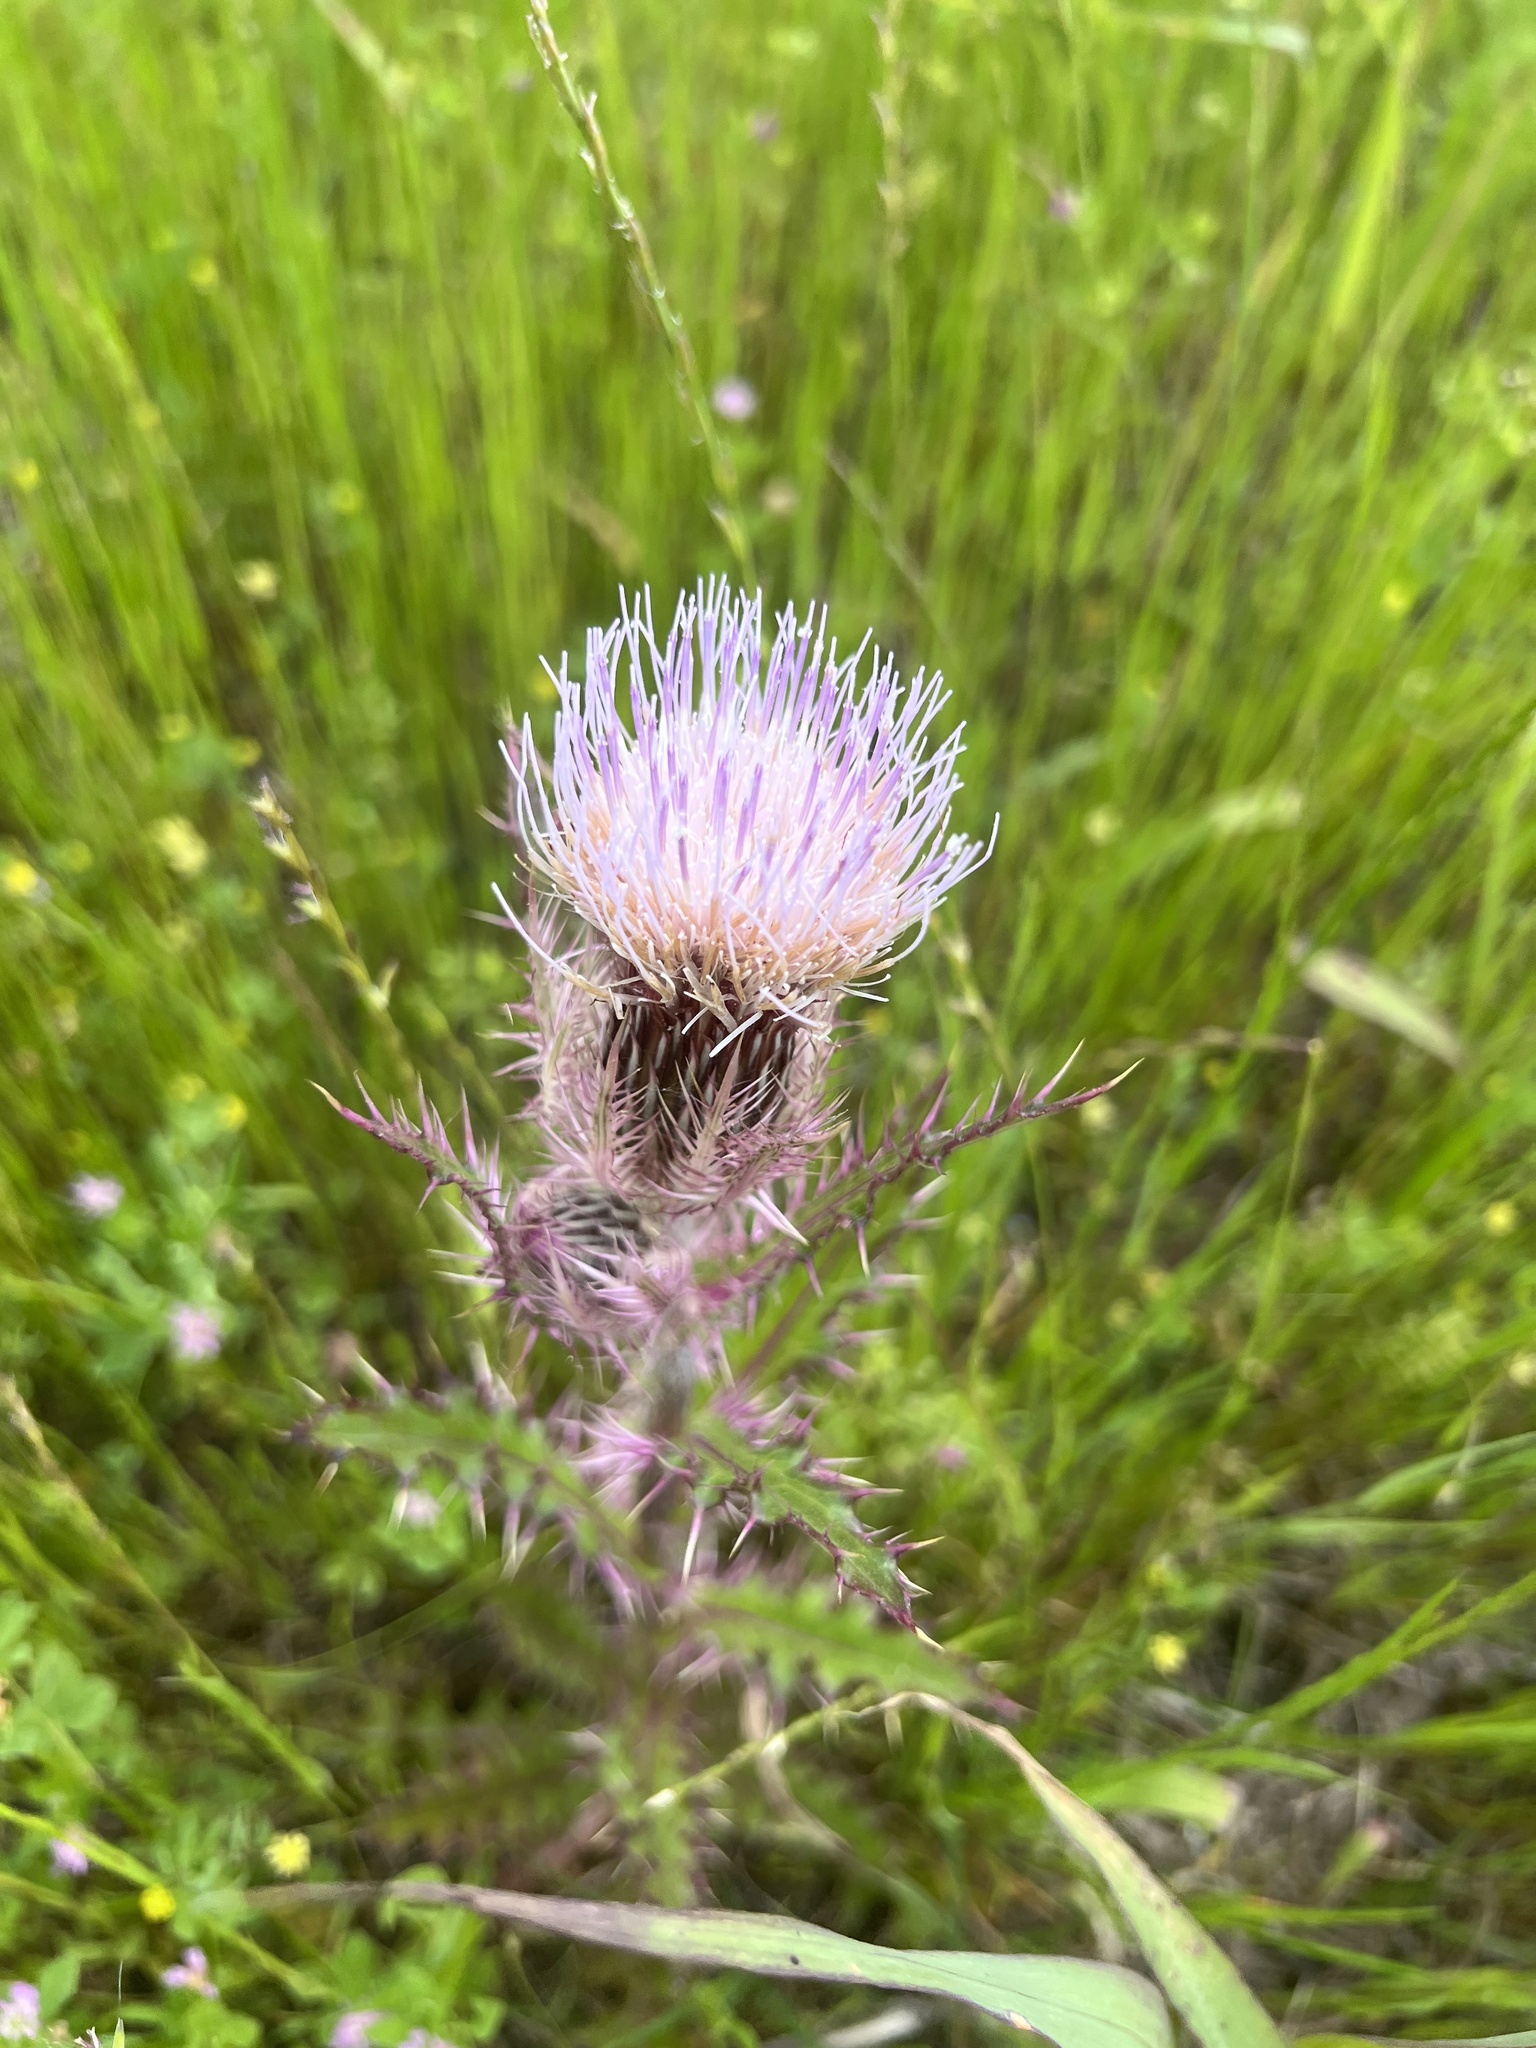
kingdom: Plantae
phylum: Tracheophyta
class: Magnoliopsida
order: Asterales
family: Asteraceae
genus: Cirsium
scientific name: Cirsium horridulum
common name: Bristly thistle
